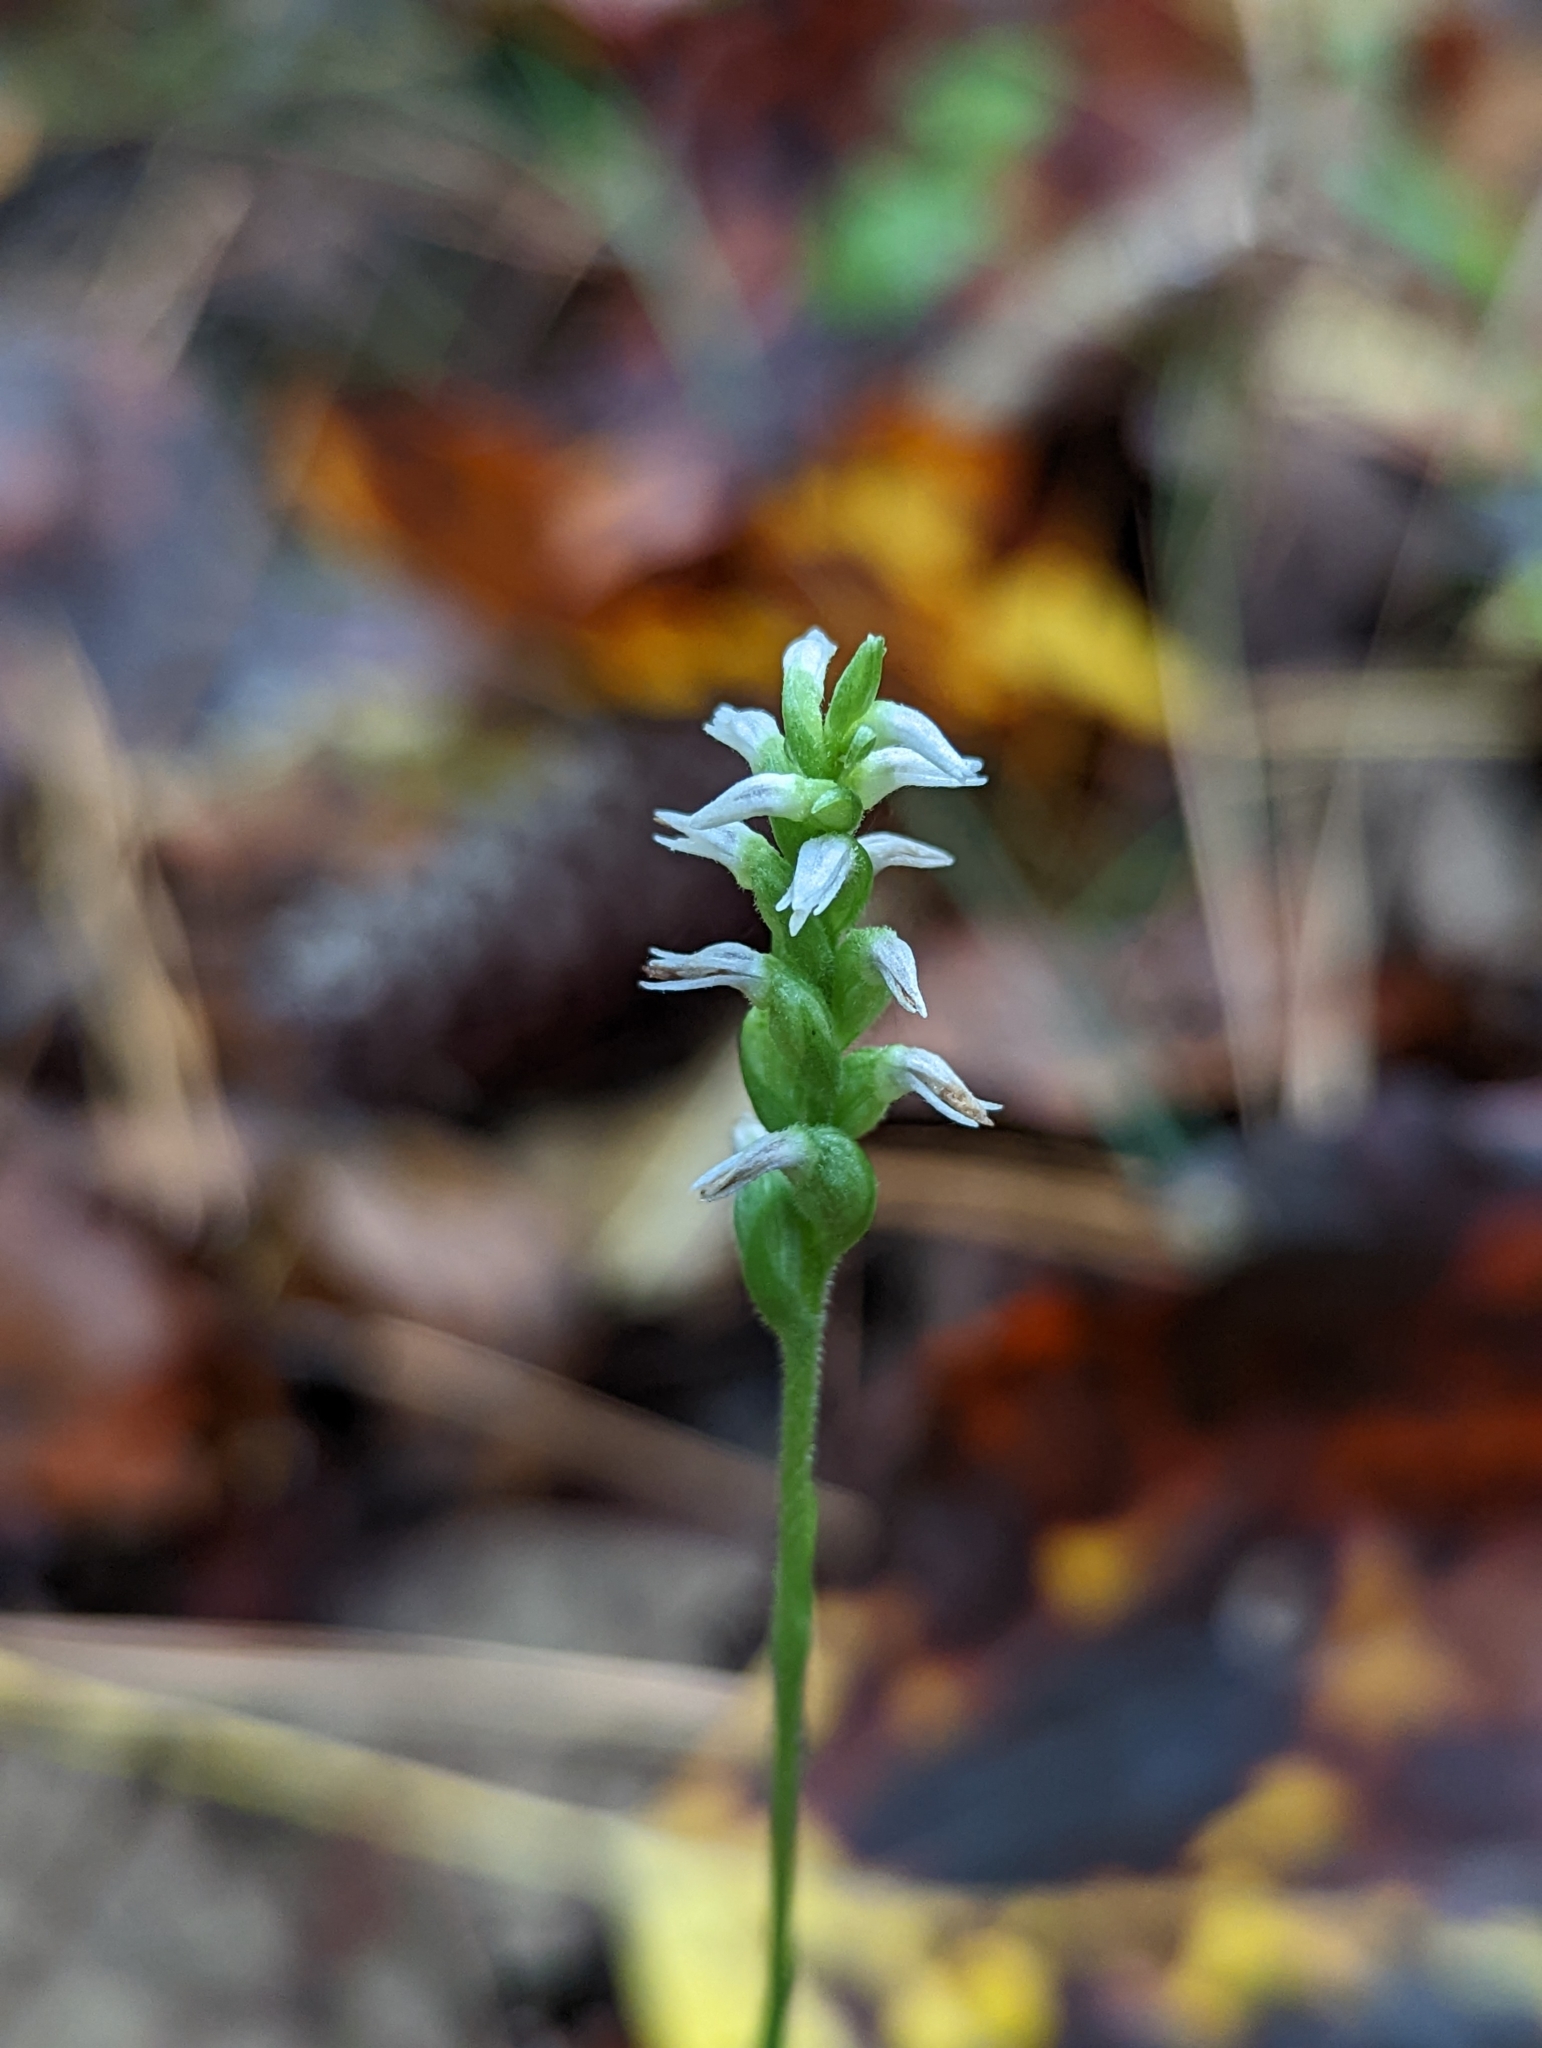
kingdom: Plantae
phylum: Tracheophyta
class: Liliopsida
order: Asparagales
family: Orchidaceae
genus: Spiranthes
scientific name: Spiranthes ovalis
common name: October ladies'-tresses
